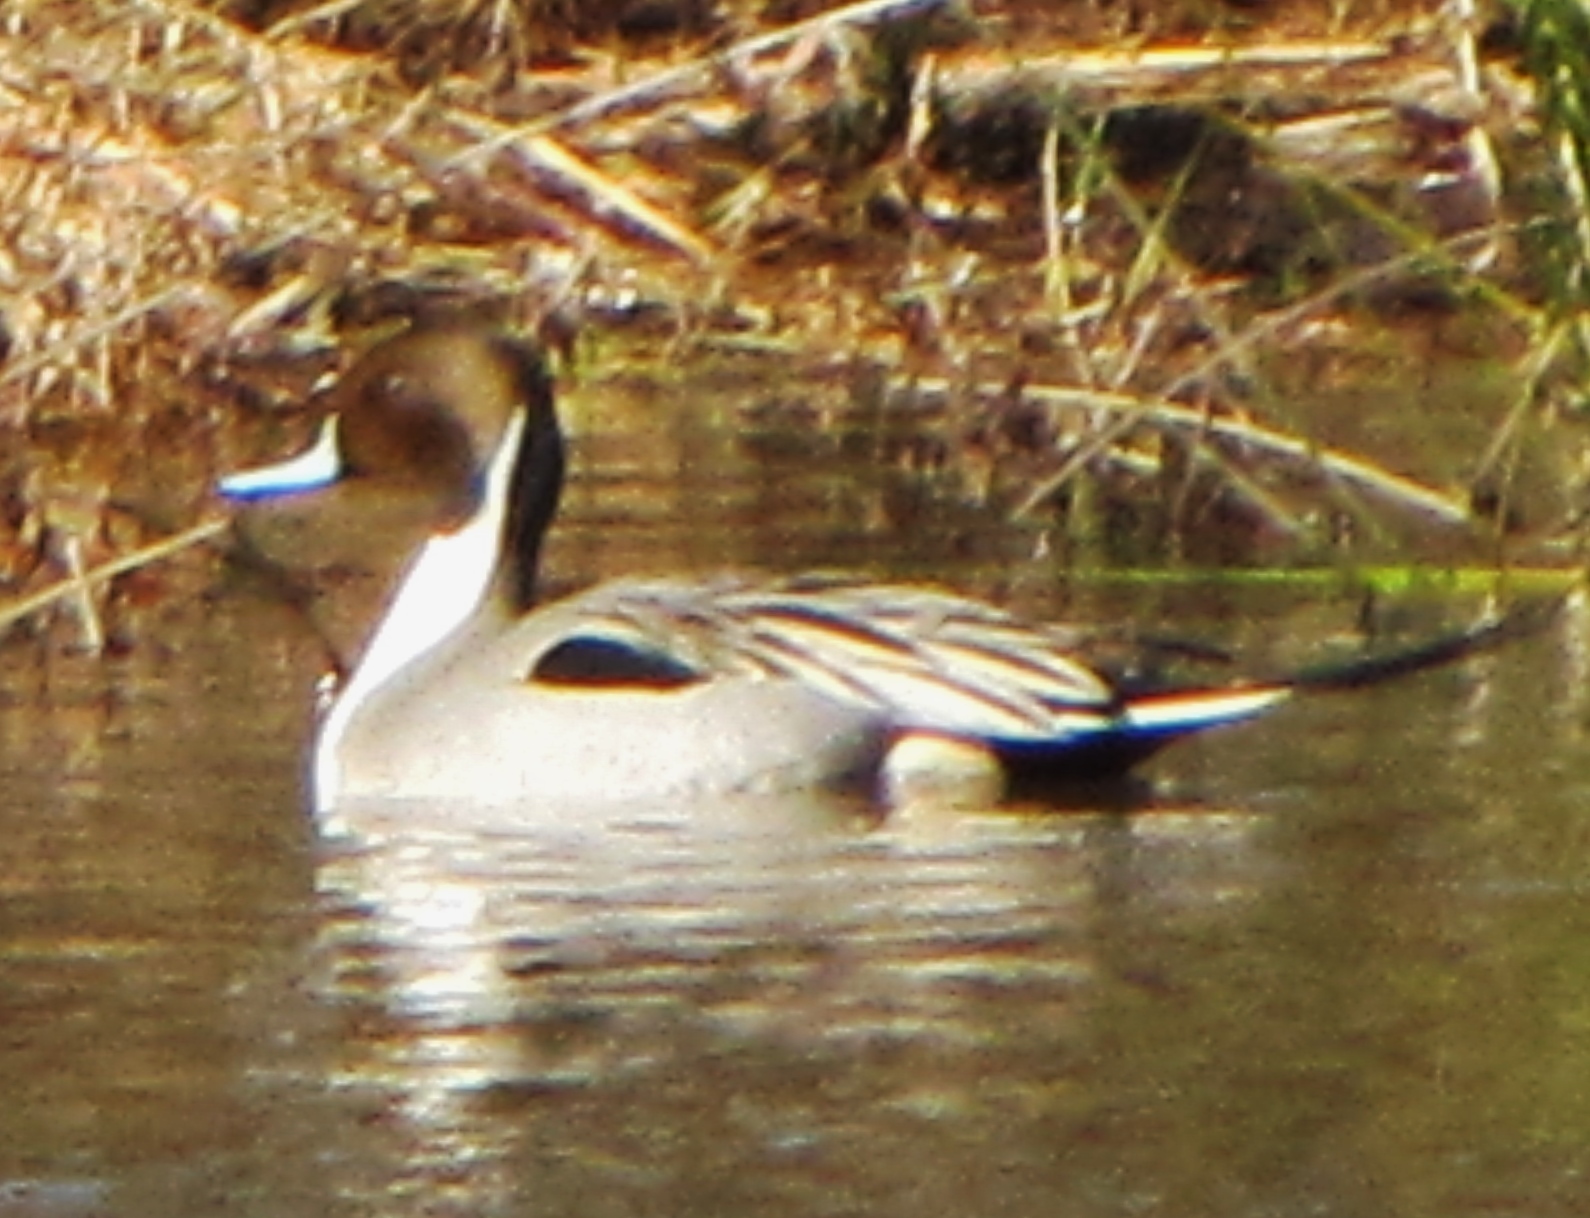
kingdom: Animalia
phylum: Chordata
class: Aves
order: Anseriformes
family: Anatidae
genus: Anas
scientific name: Anas acuta
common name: Northern pintail
